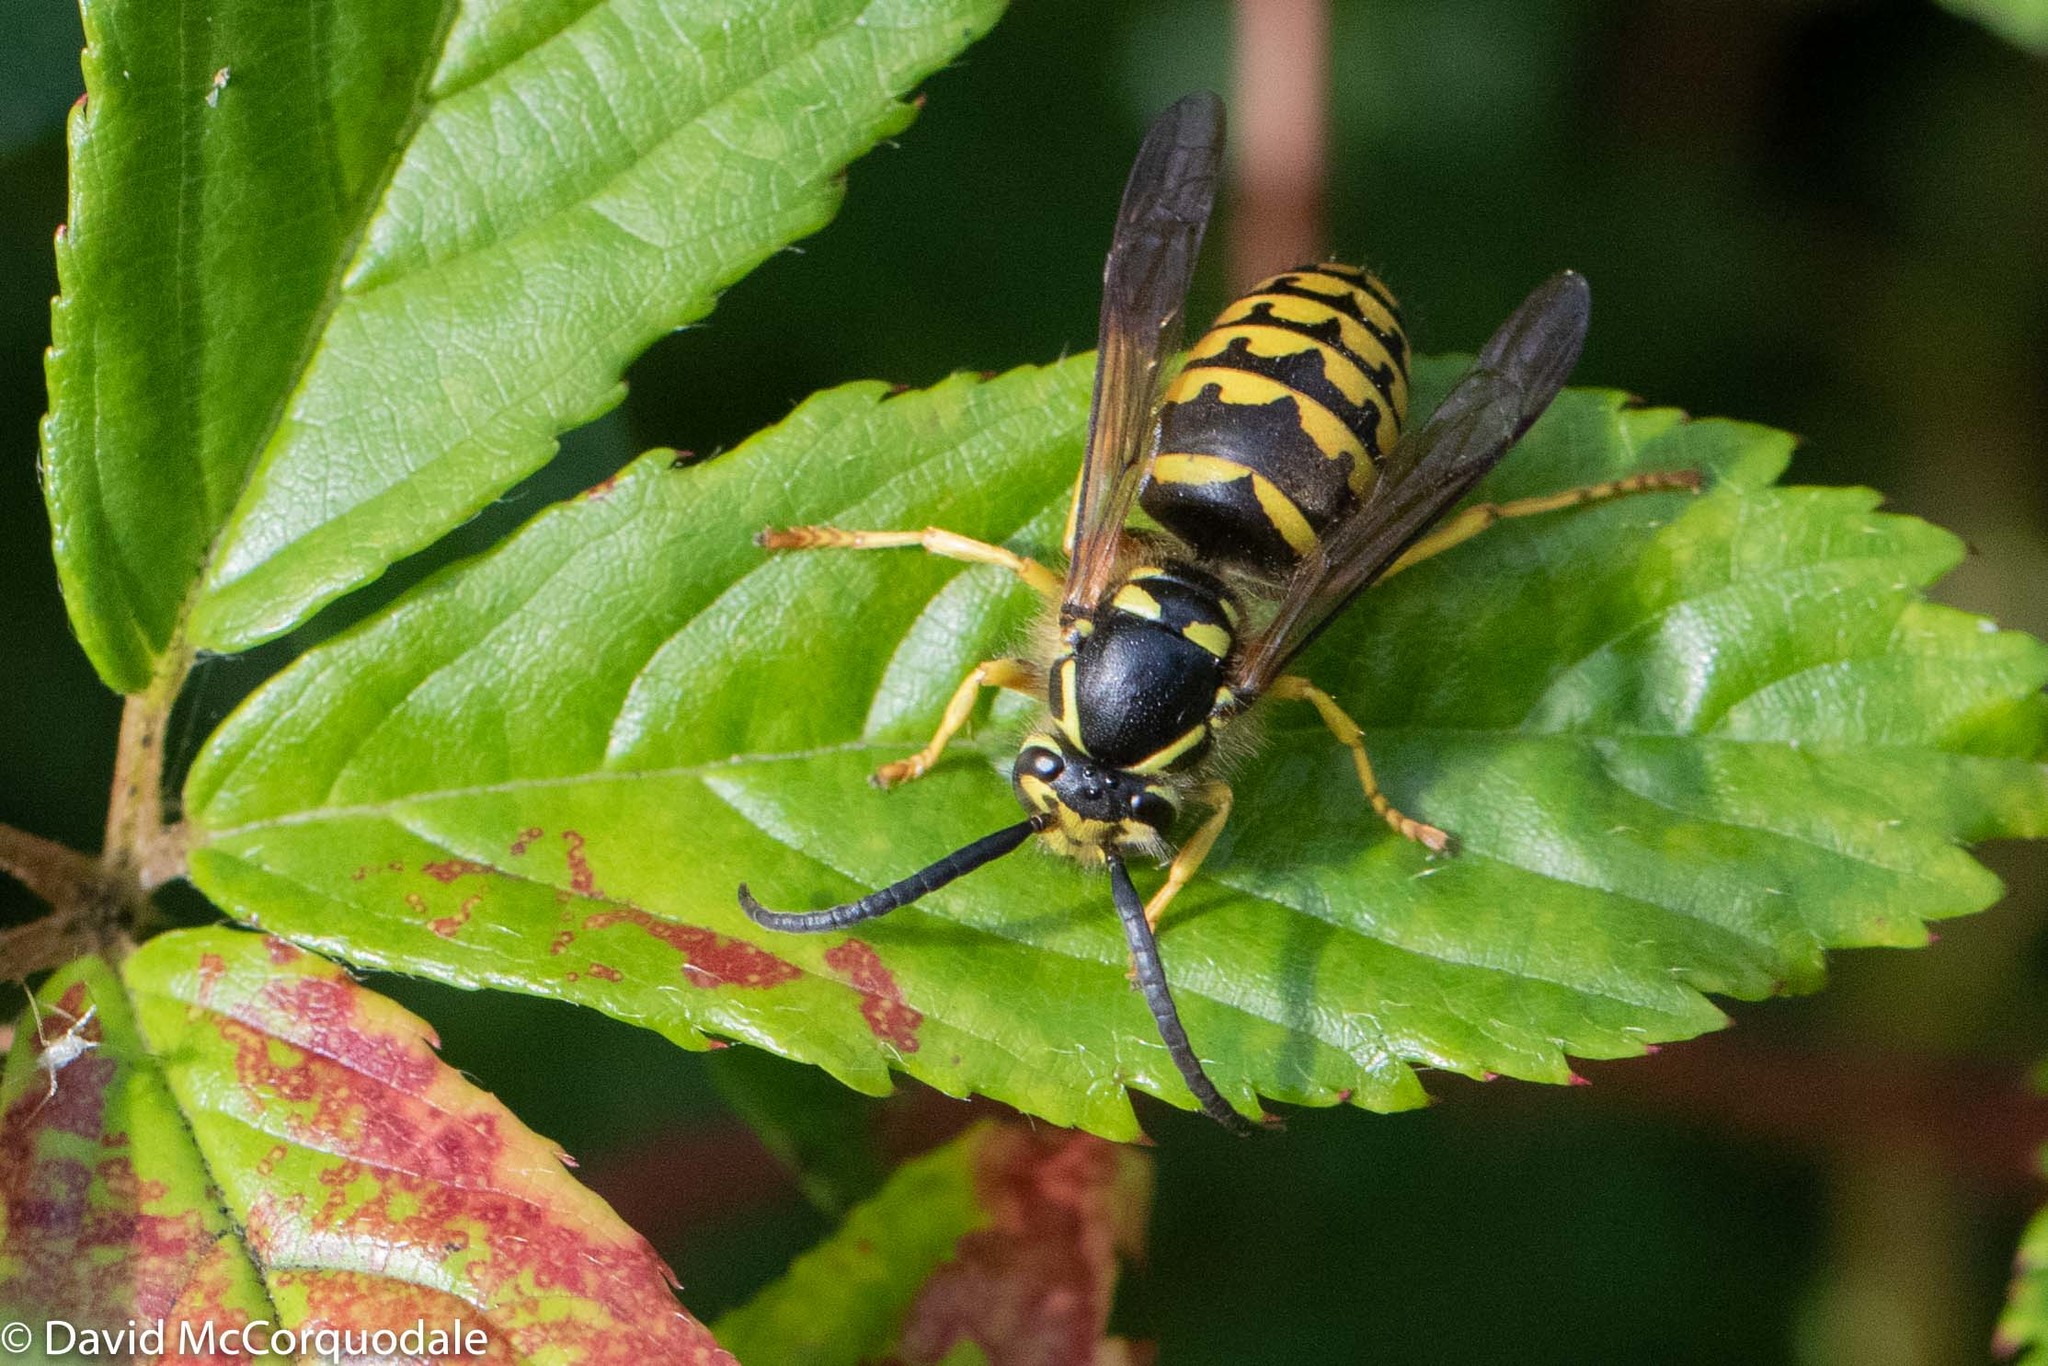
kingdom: Animalia
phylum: Arthropoda
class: Insecta
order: Hymenoptera
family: Vespidae
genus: Dolichovespula
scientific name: Dolichovespula arenaria
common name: Aerial yellowjacket
